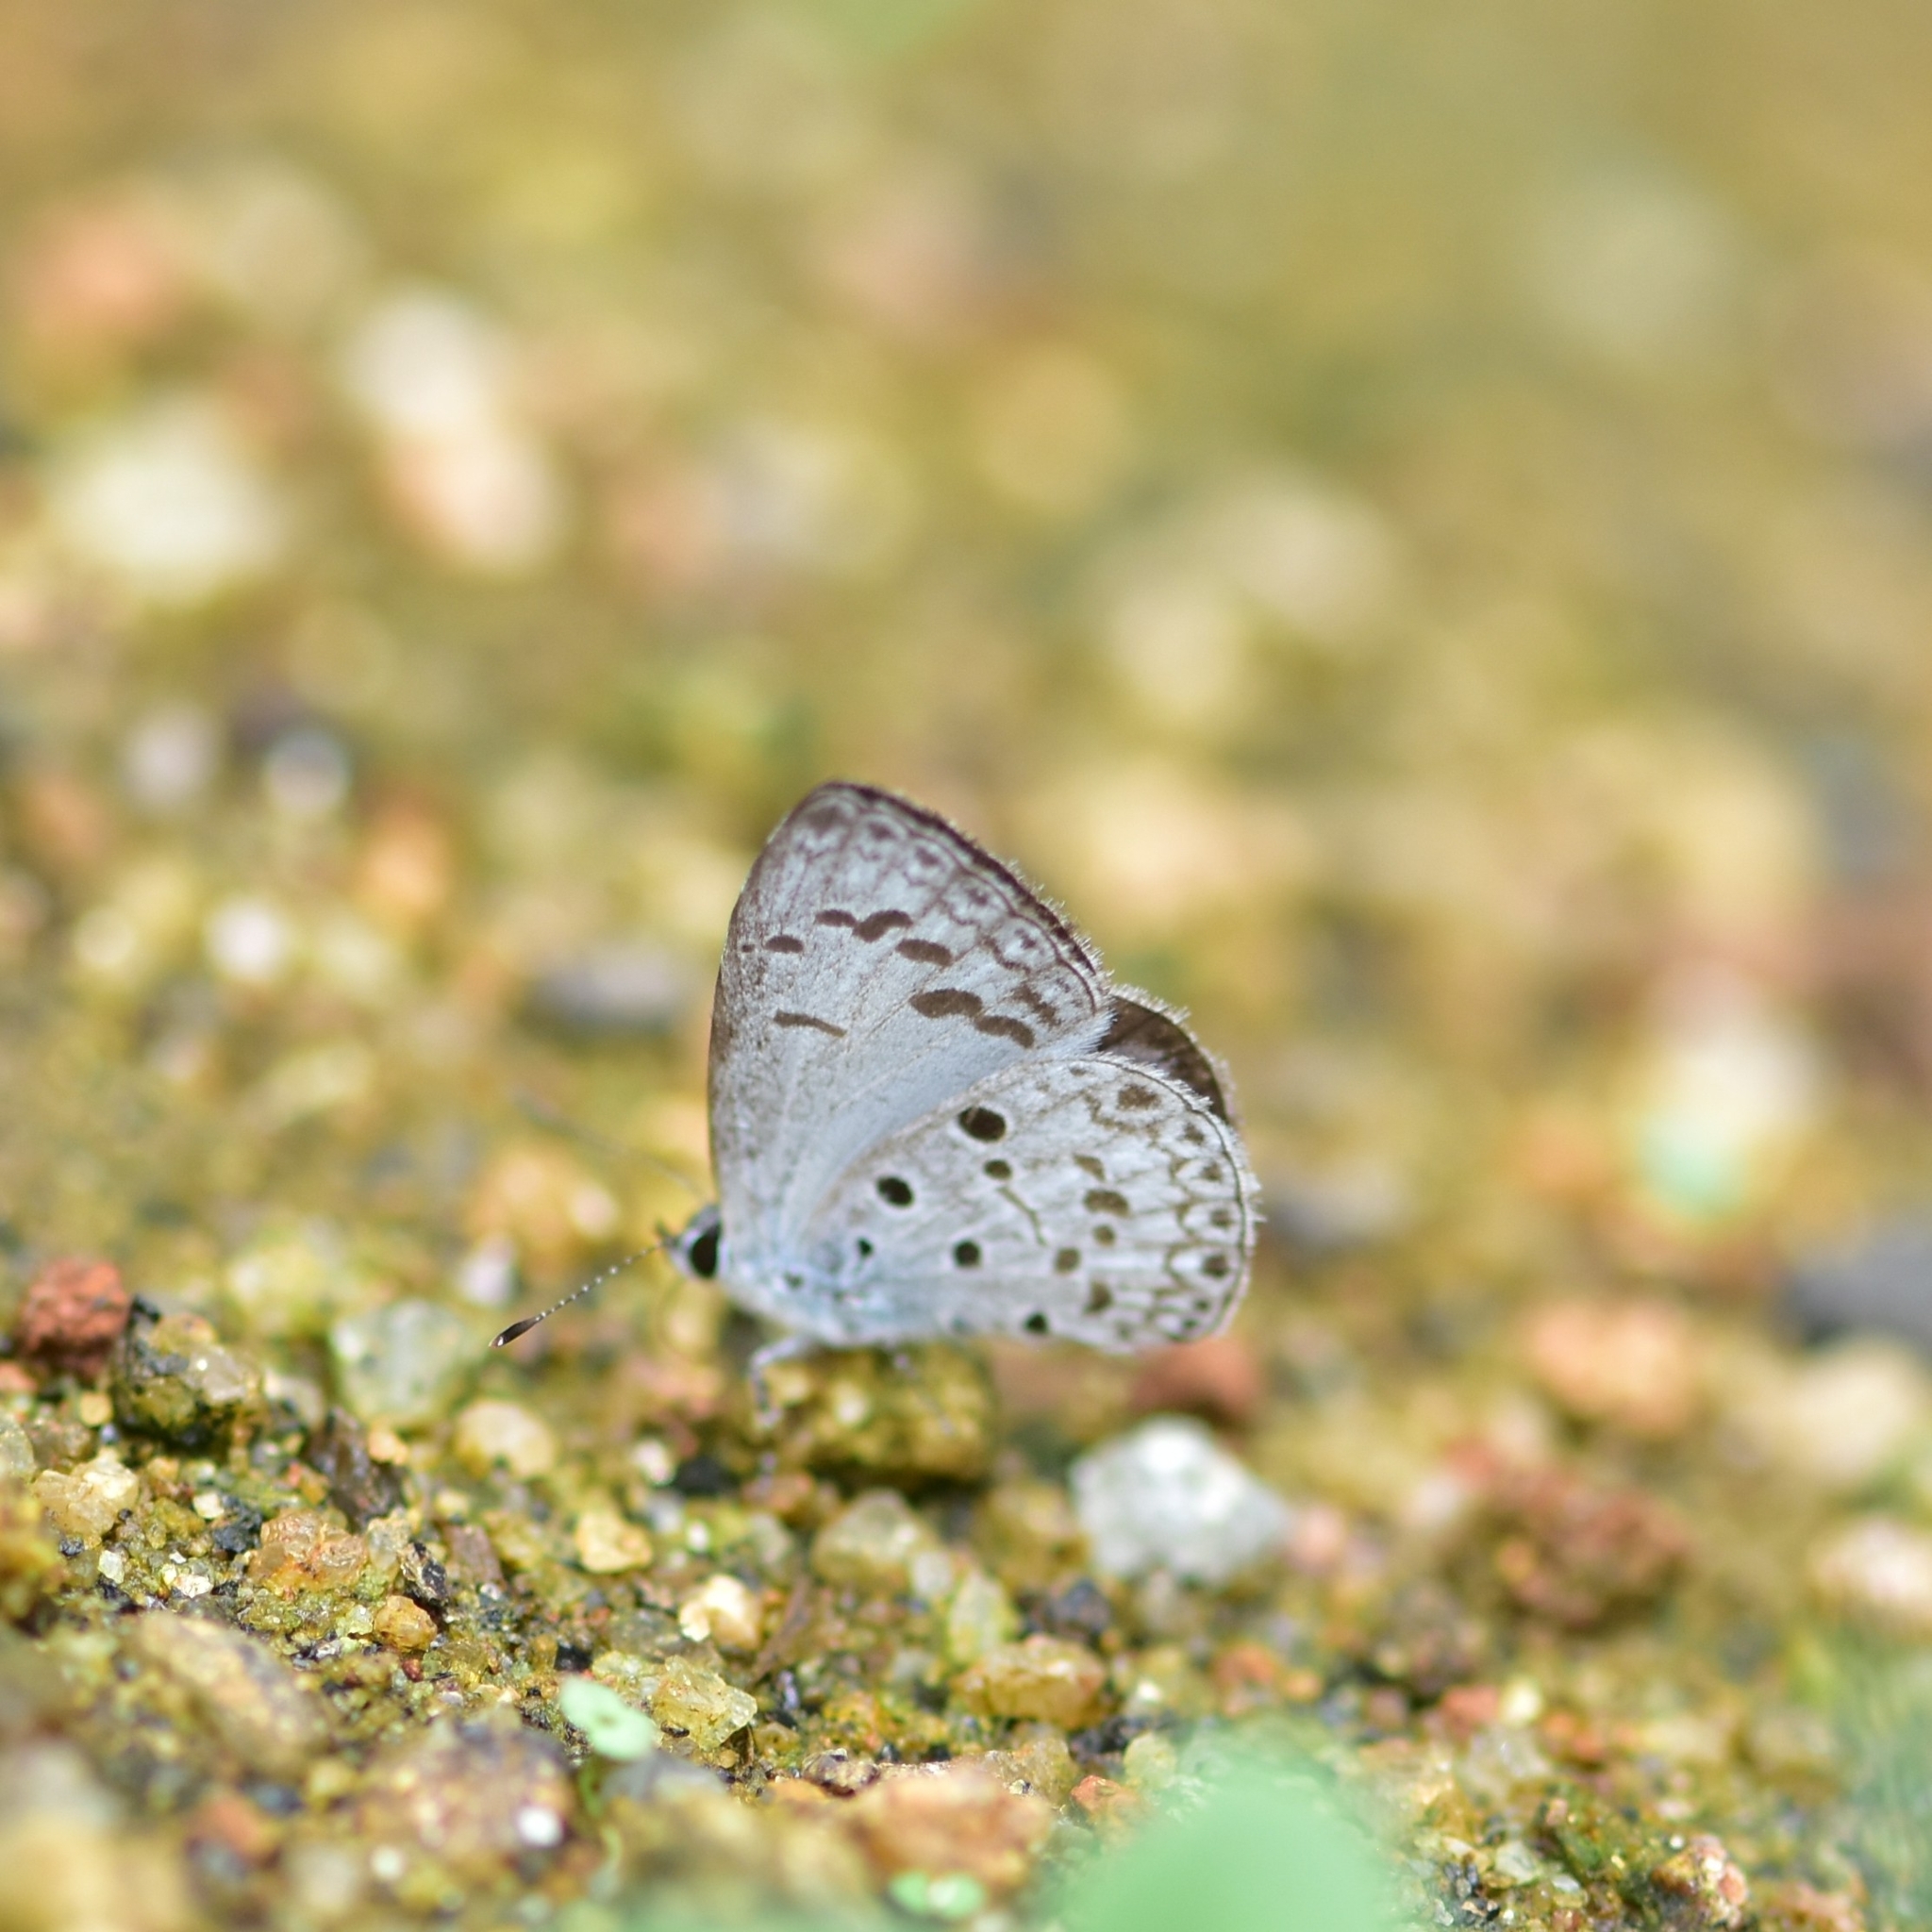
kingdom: Animalia
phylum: Arthropoda
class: Insecta
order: Lepidoptera
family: Lycaenidae
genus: Acytolepis
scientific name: Acytolepis puspa
